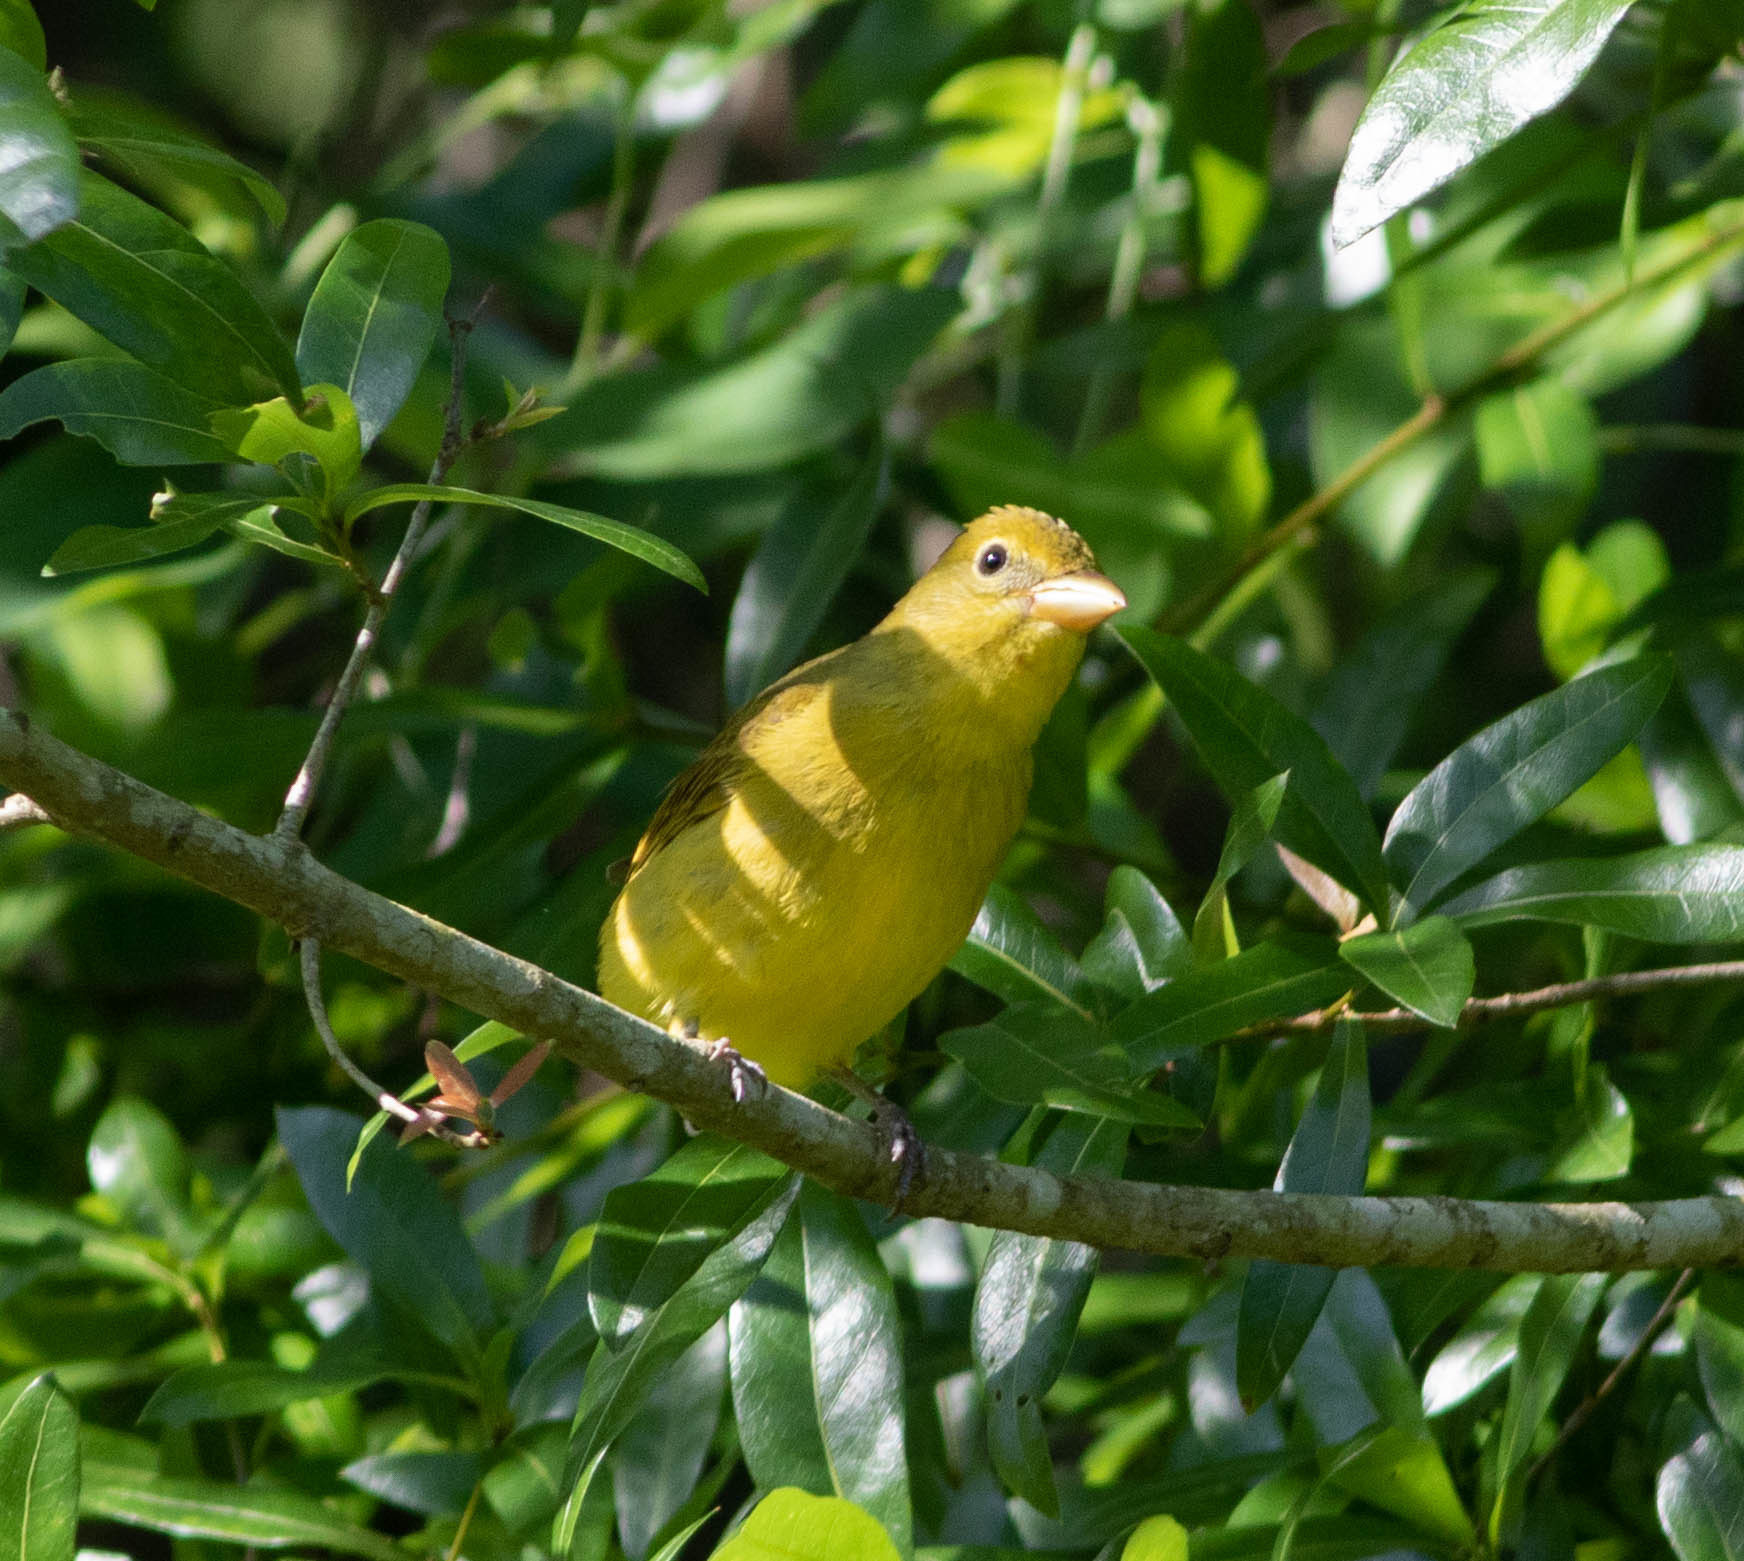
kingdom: Animalia
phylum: Chordata
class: Aves
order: Passeriformes
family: Cardinalidae
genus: Piranga
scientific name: Piranga rubra
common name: Summer tanager
